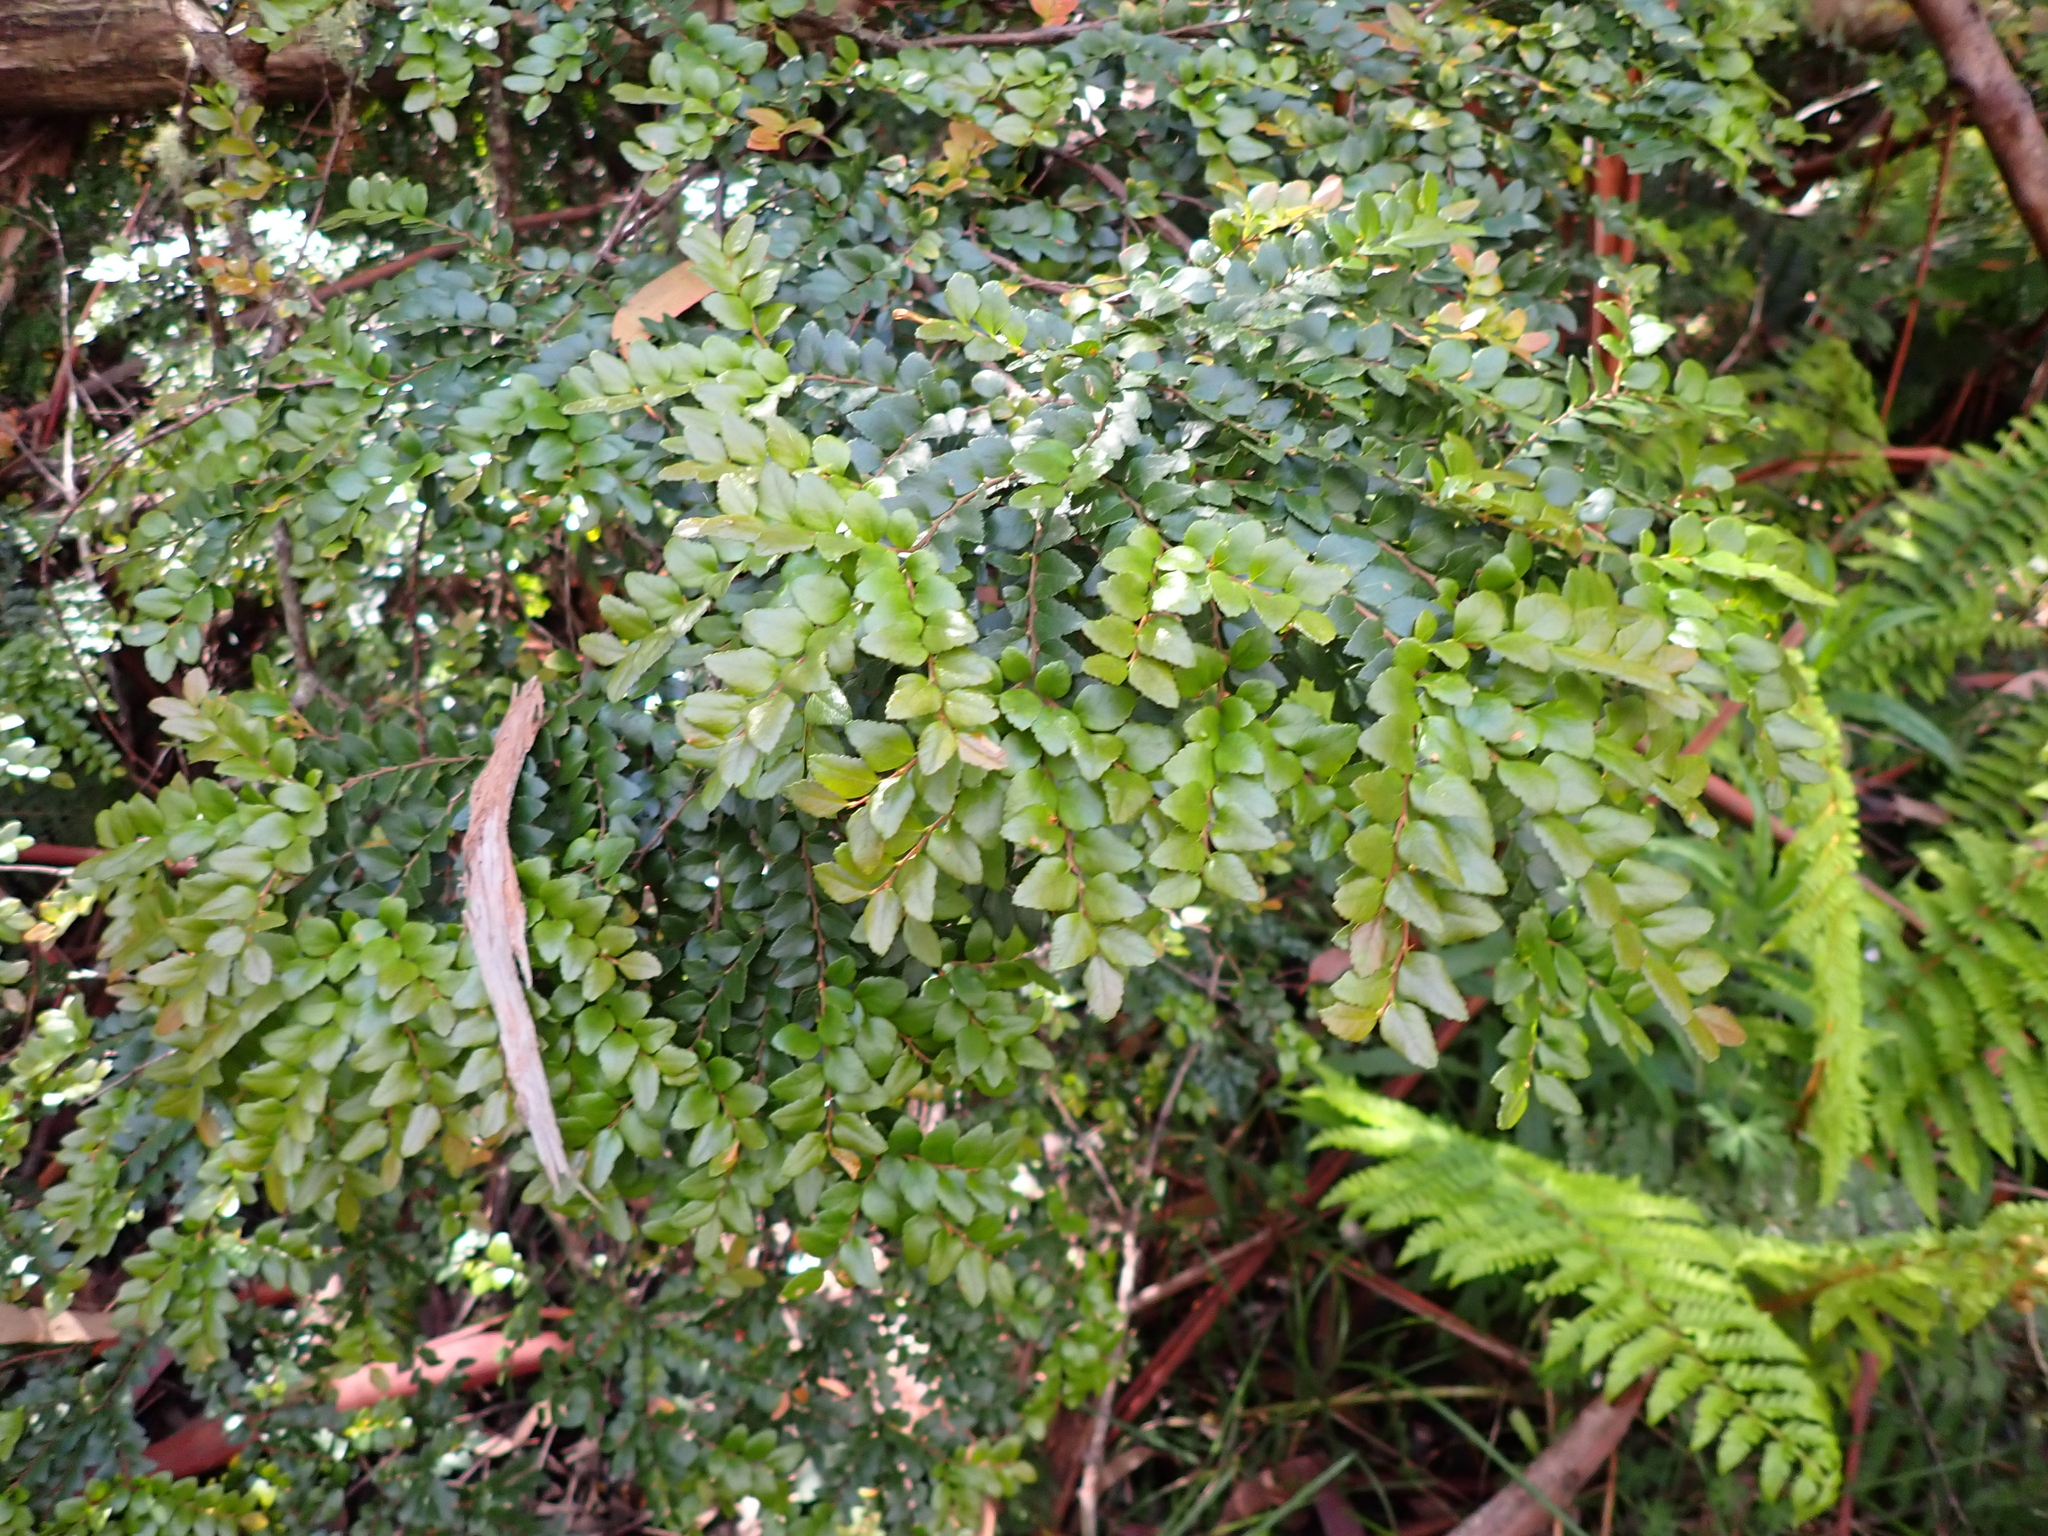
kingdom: Plantae
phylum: Tracheophyta
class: Magnoliopsida
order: Fagales
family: Nothofagaceae
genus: Nothofagus
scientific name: Nothofagus cunninghamii
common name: Myrtle beech
